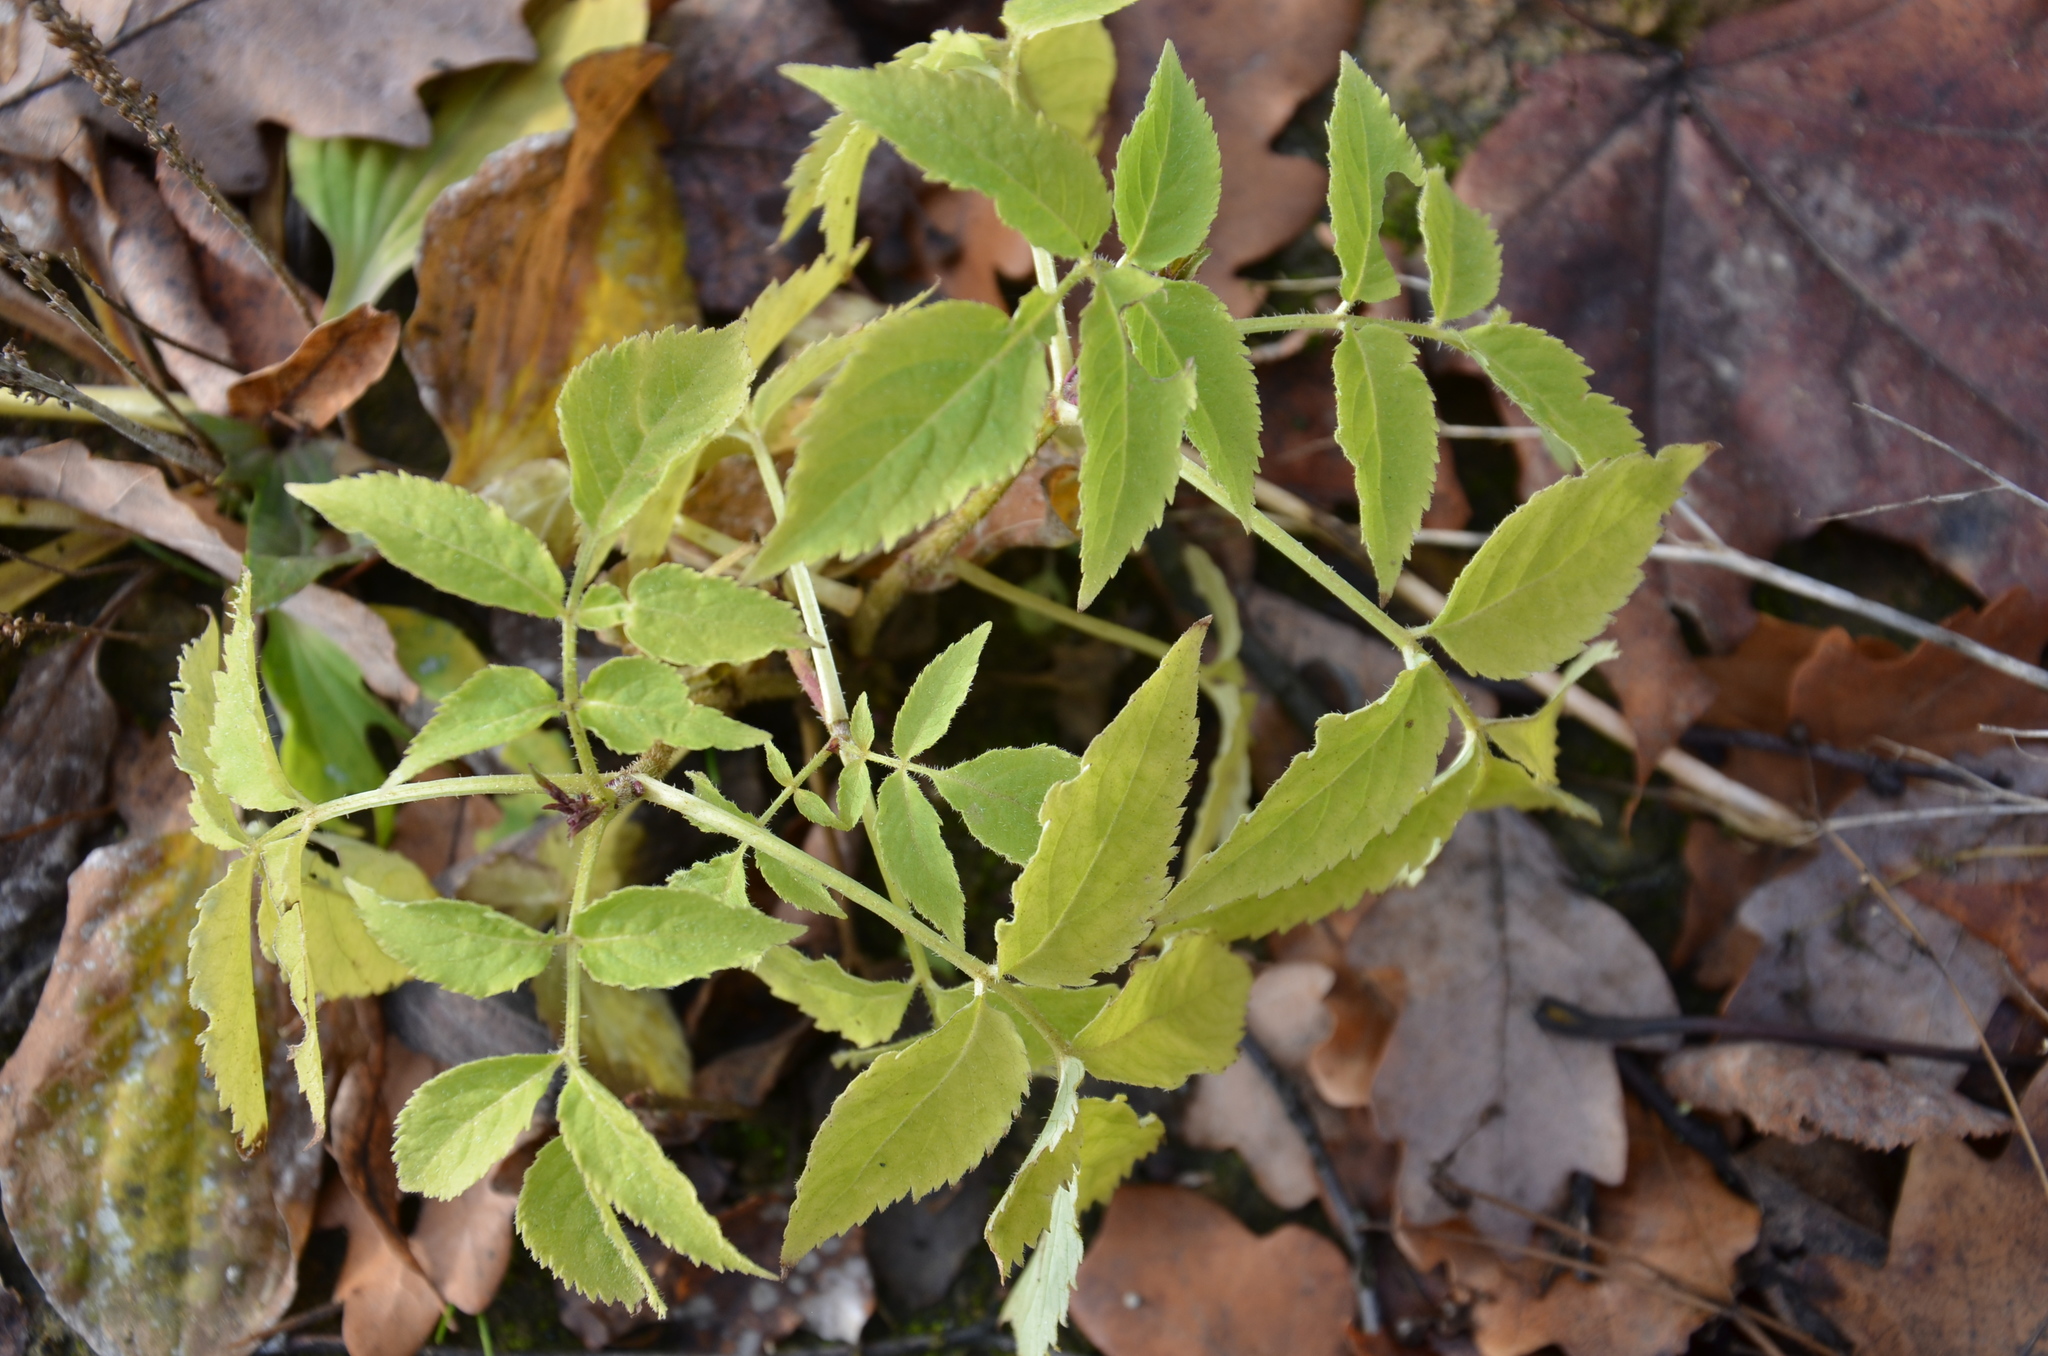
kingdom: Plantae
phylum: Tracheophyta
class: Magnoliopsida
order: Dipsacales
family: Viburnaceae
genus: Sambucus
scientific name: Sambucus racemosa
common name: Red-berried elder
